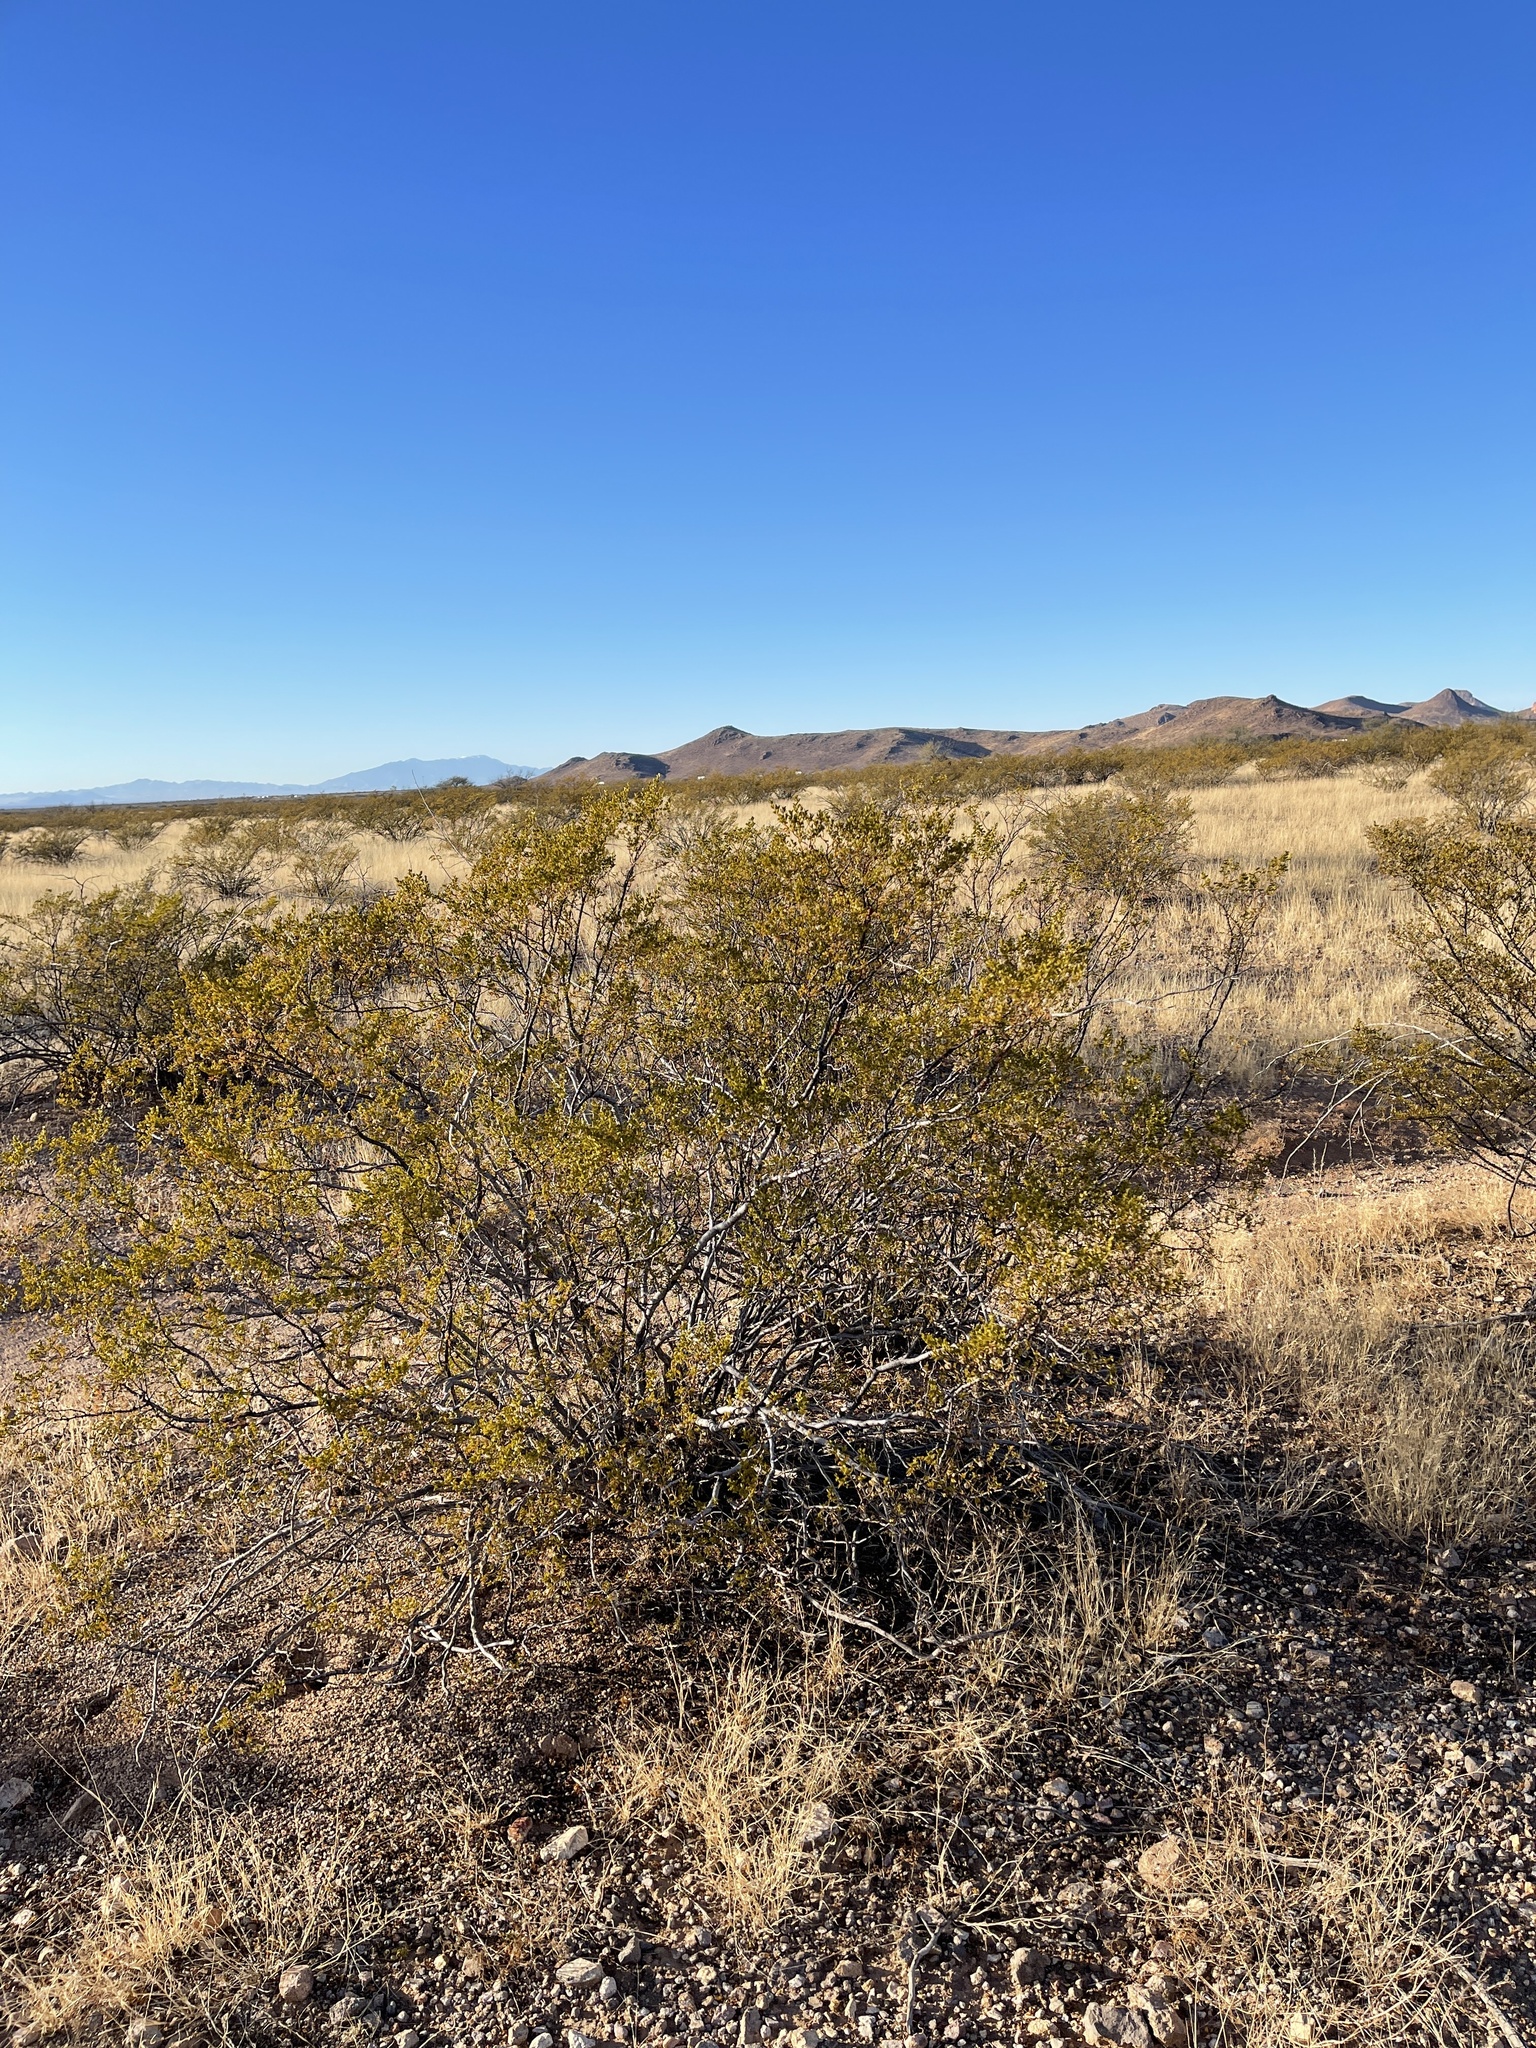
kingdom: Plantae
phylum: Tracheophyta
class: Magnoliopsida
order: Zygophyllales
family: Zygophyllaceae
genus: Larrea
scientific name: Larrea tridentata
